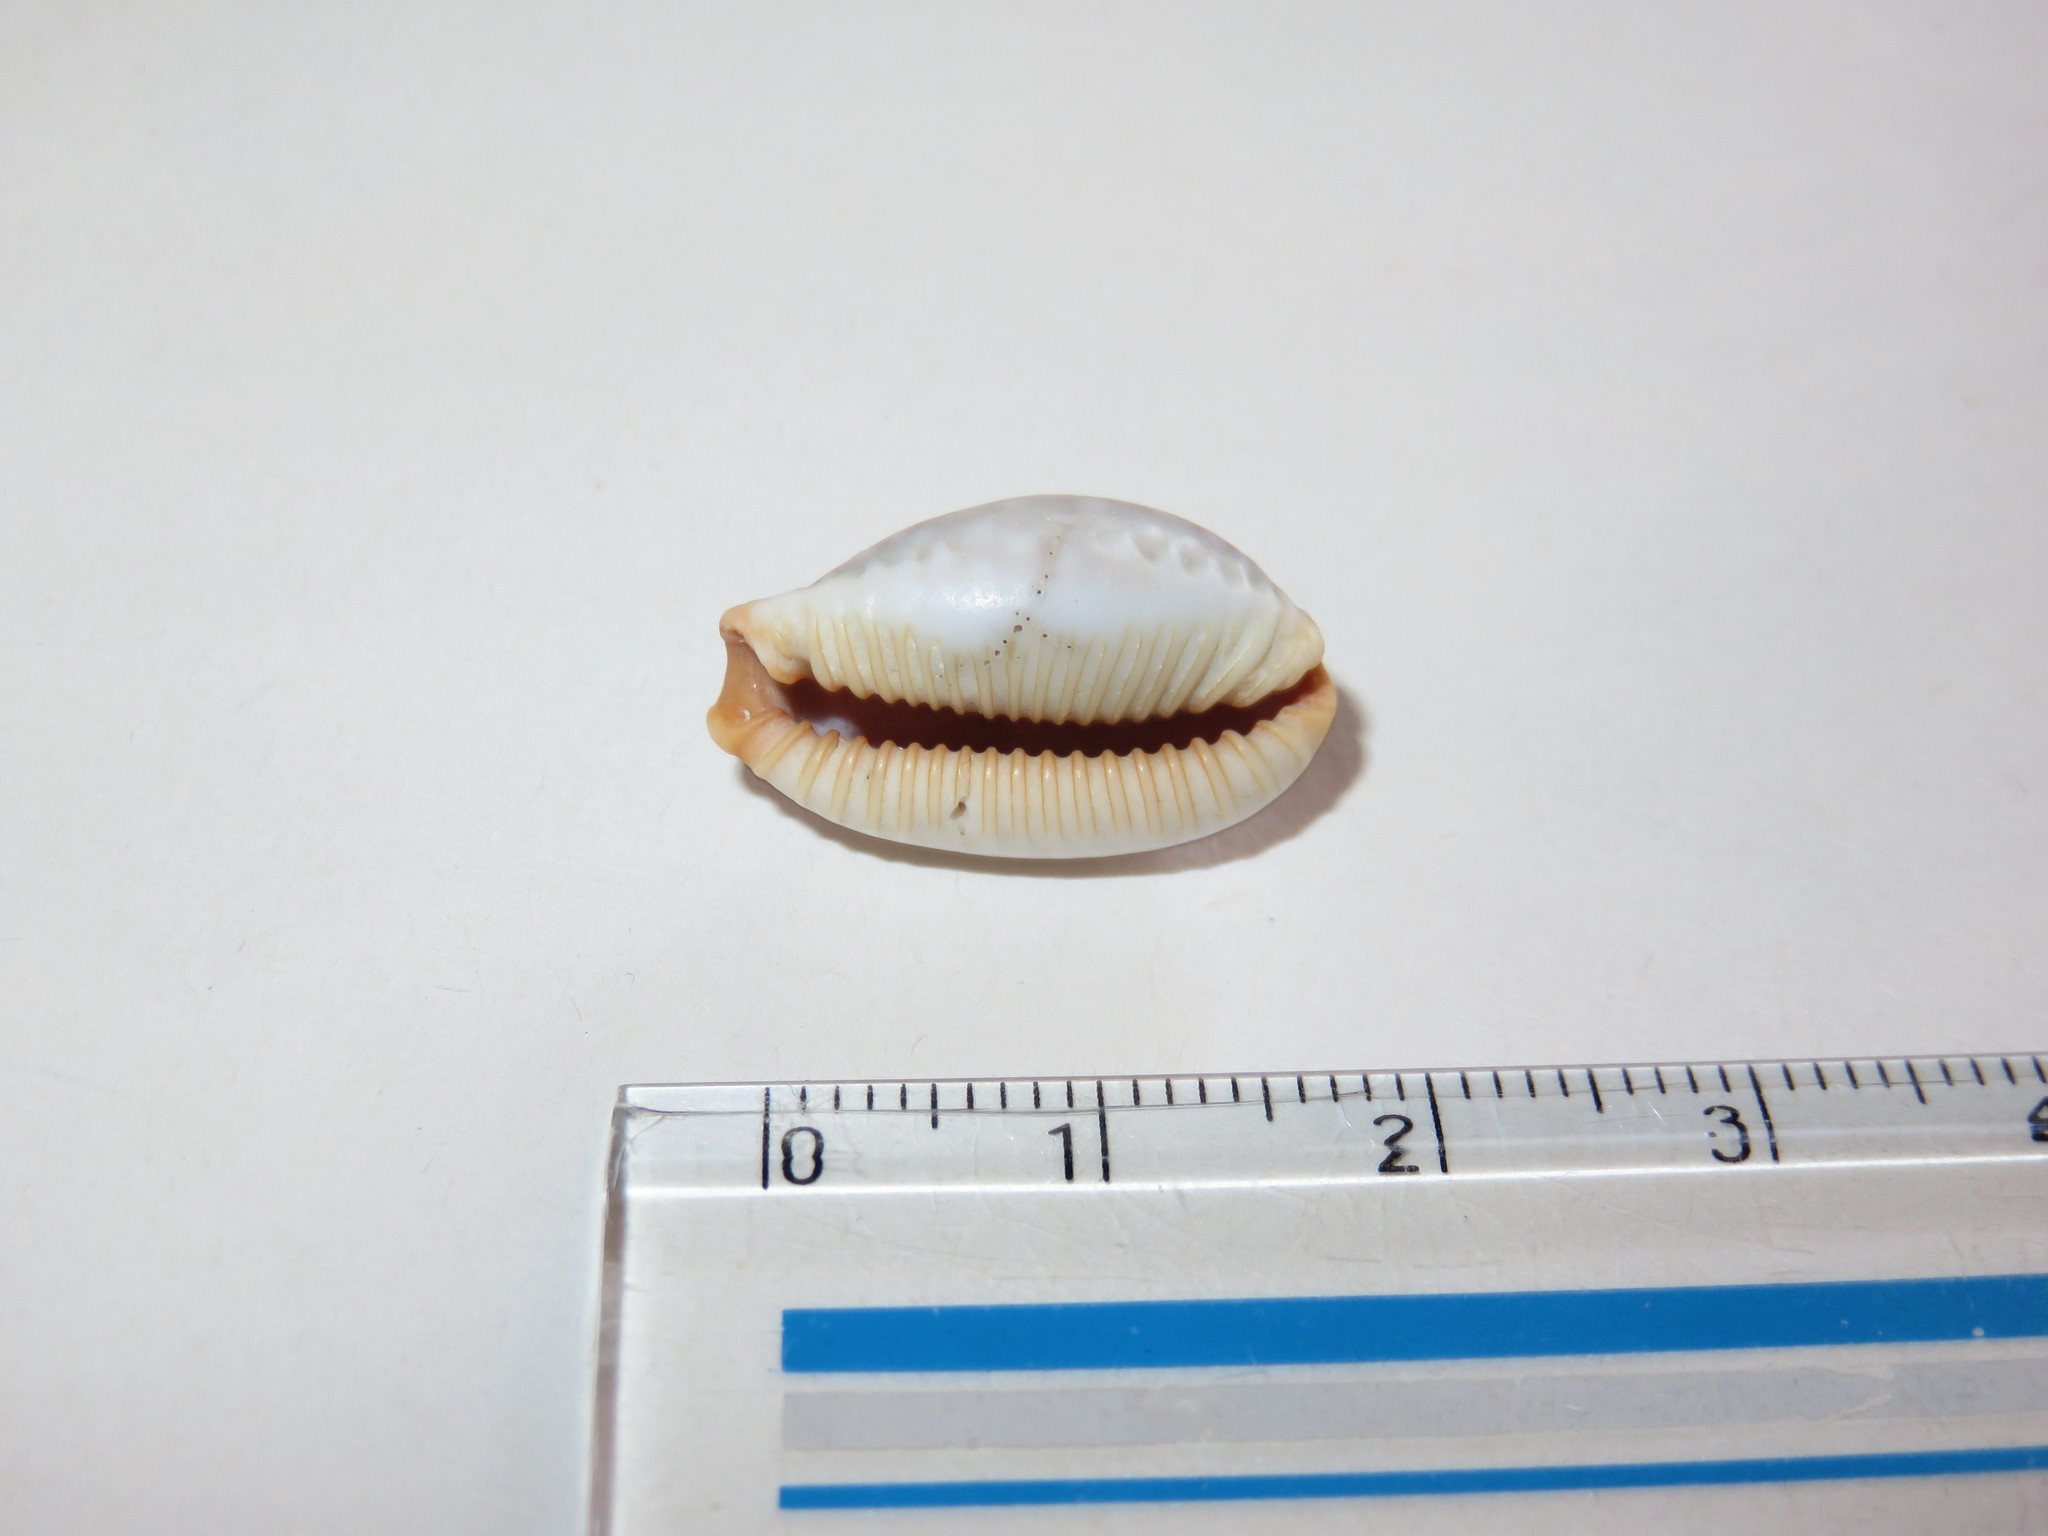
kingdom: Animalia
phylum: Mollusca
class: Gastropoda
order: Littorinimorpha
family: Cypraeidae
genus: Staphylaea
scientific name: Staphylaea limacina
